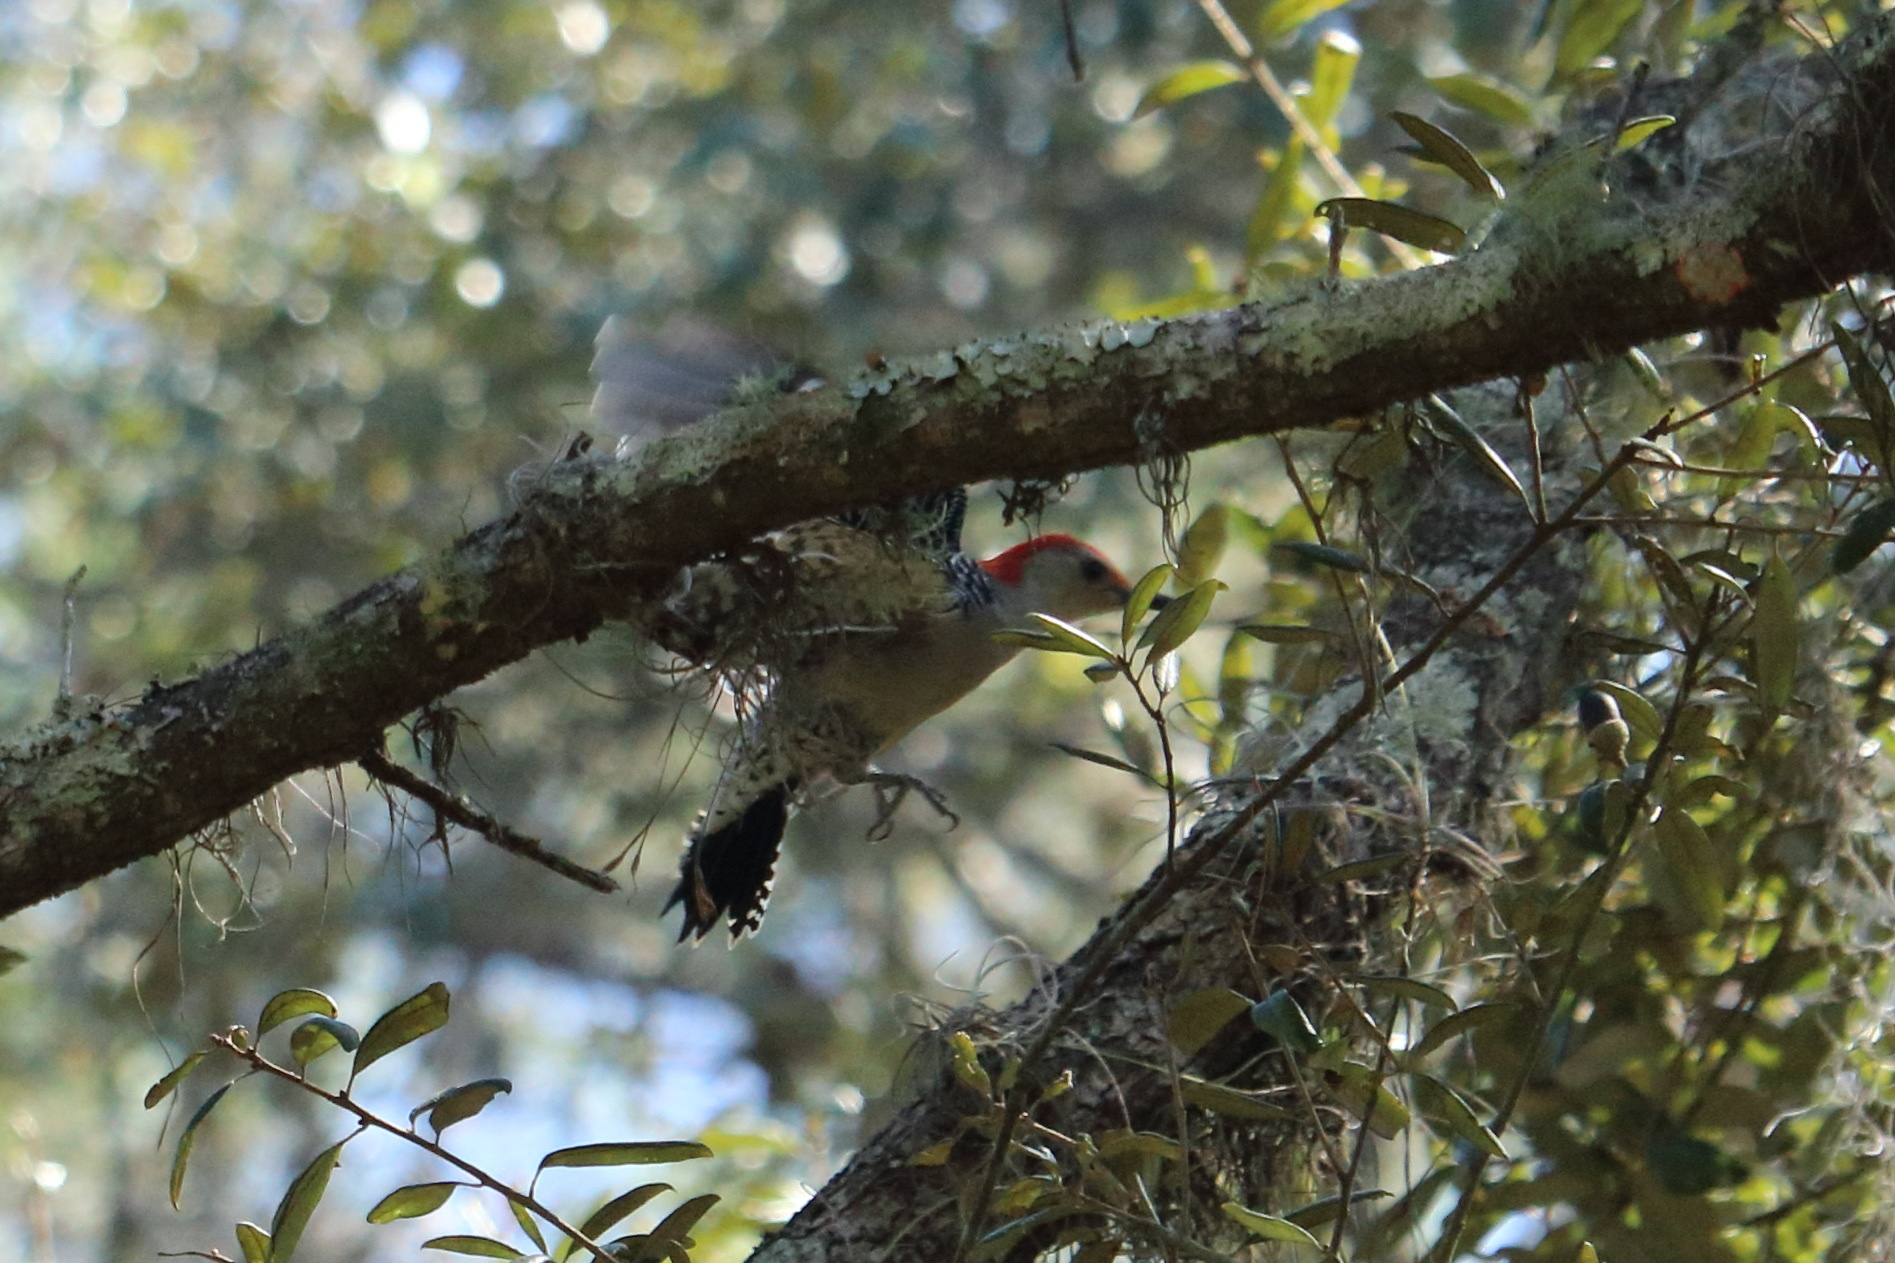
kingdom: Animalia
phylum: Chordata
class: Aves
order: Piciformes
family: Picidae
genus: Melanerpes
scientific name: Melanerpes carolinus
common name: Red-bellied woodpecker
